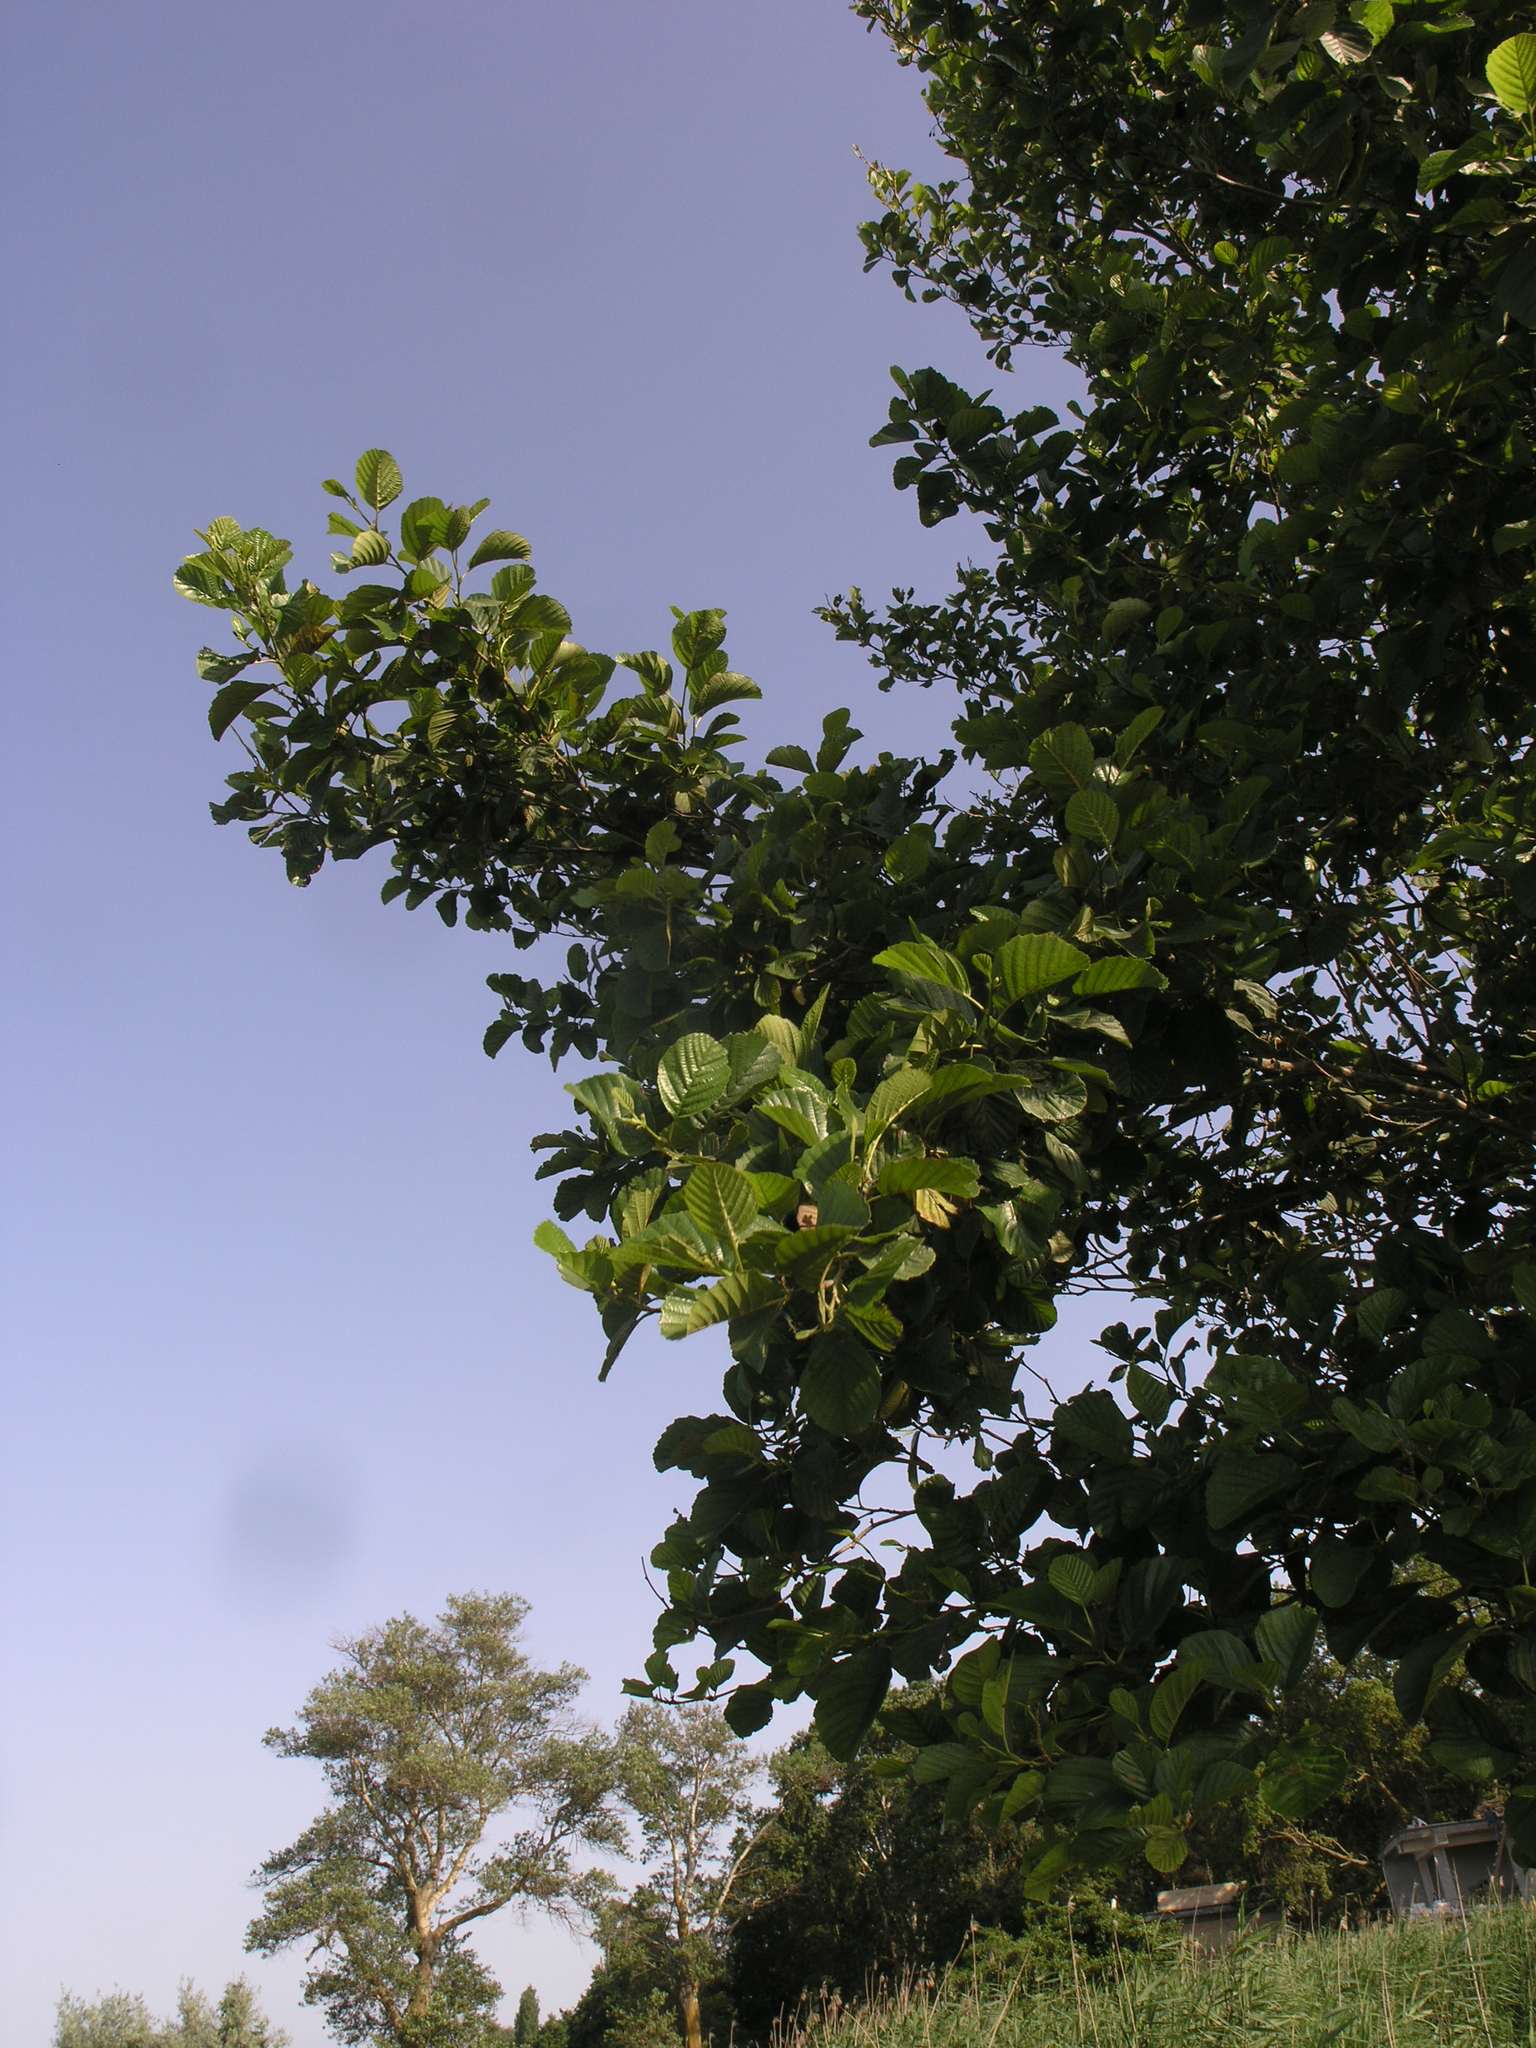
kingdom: Plantae
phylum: Tracheophyta
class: Magnoliopsida
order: Fagales
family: Betulaceae
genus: Alnus
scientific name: Alnus glutinosa
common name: Black alder
